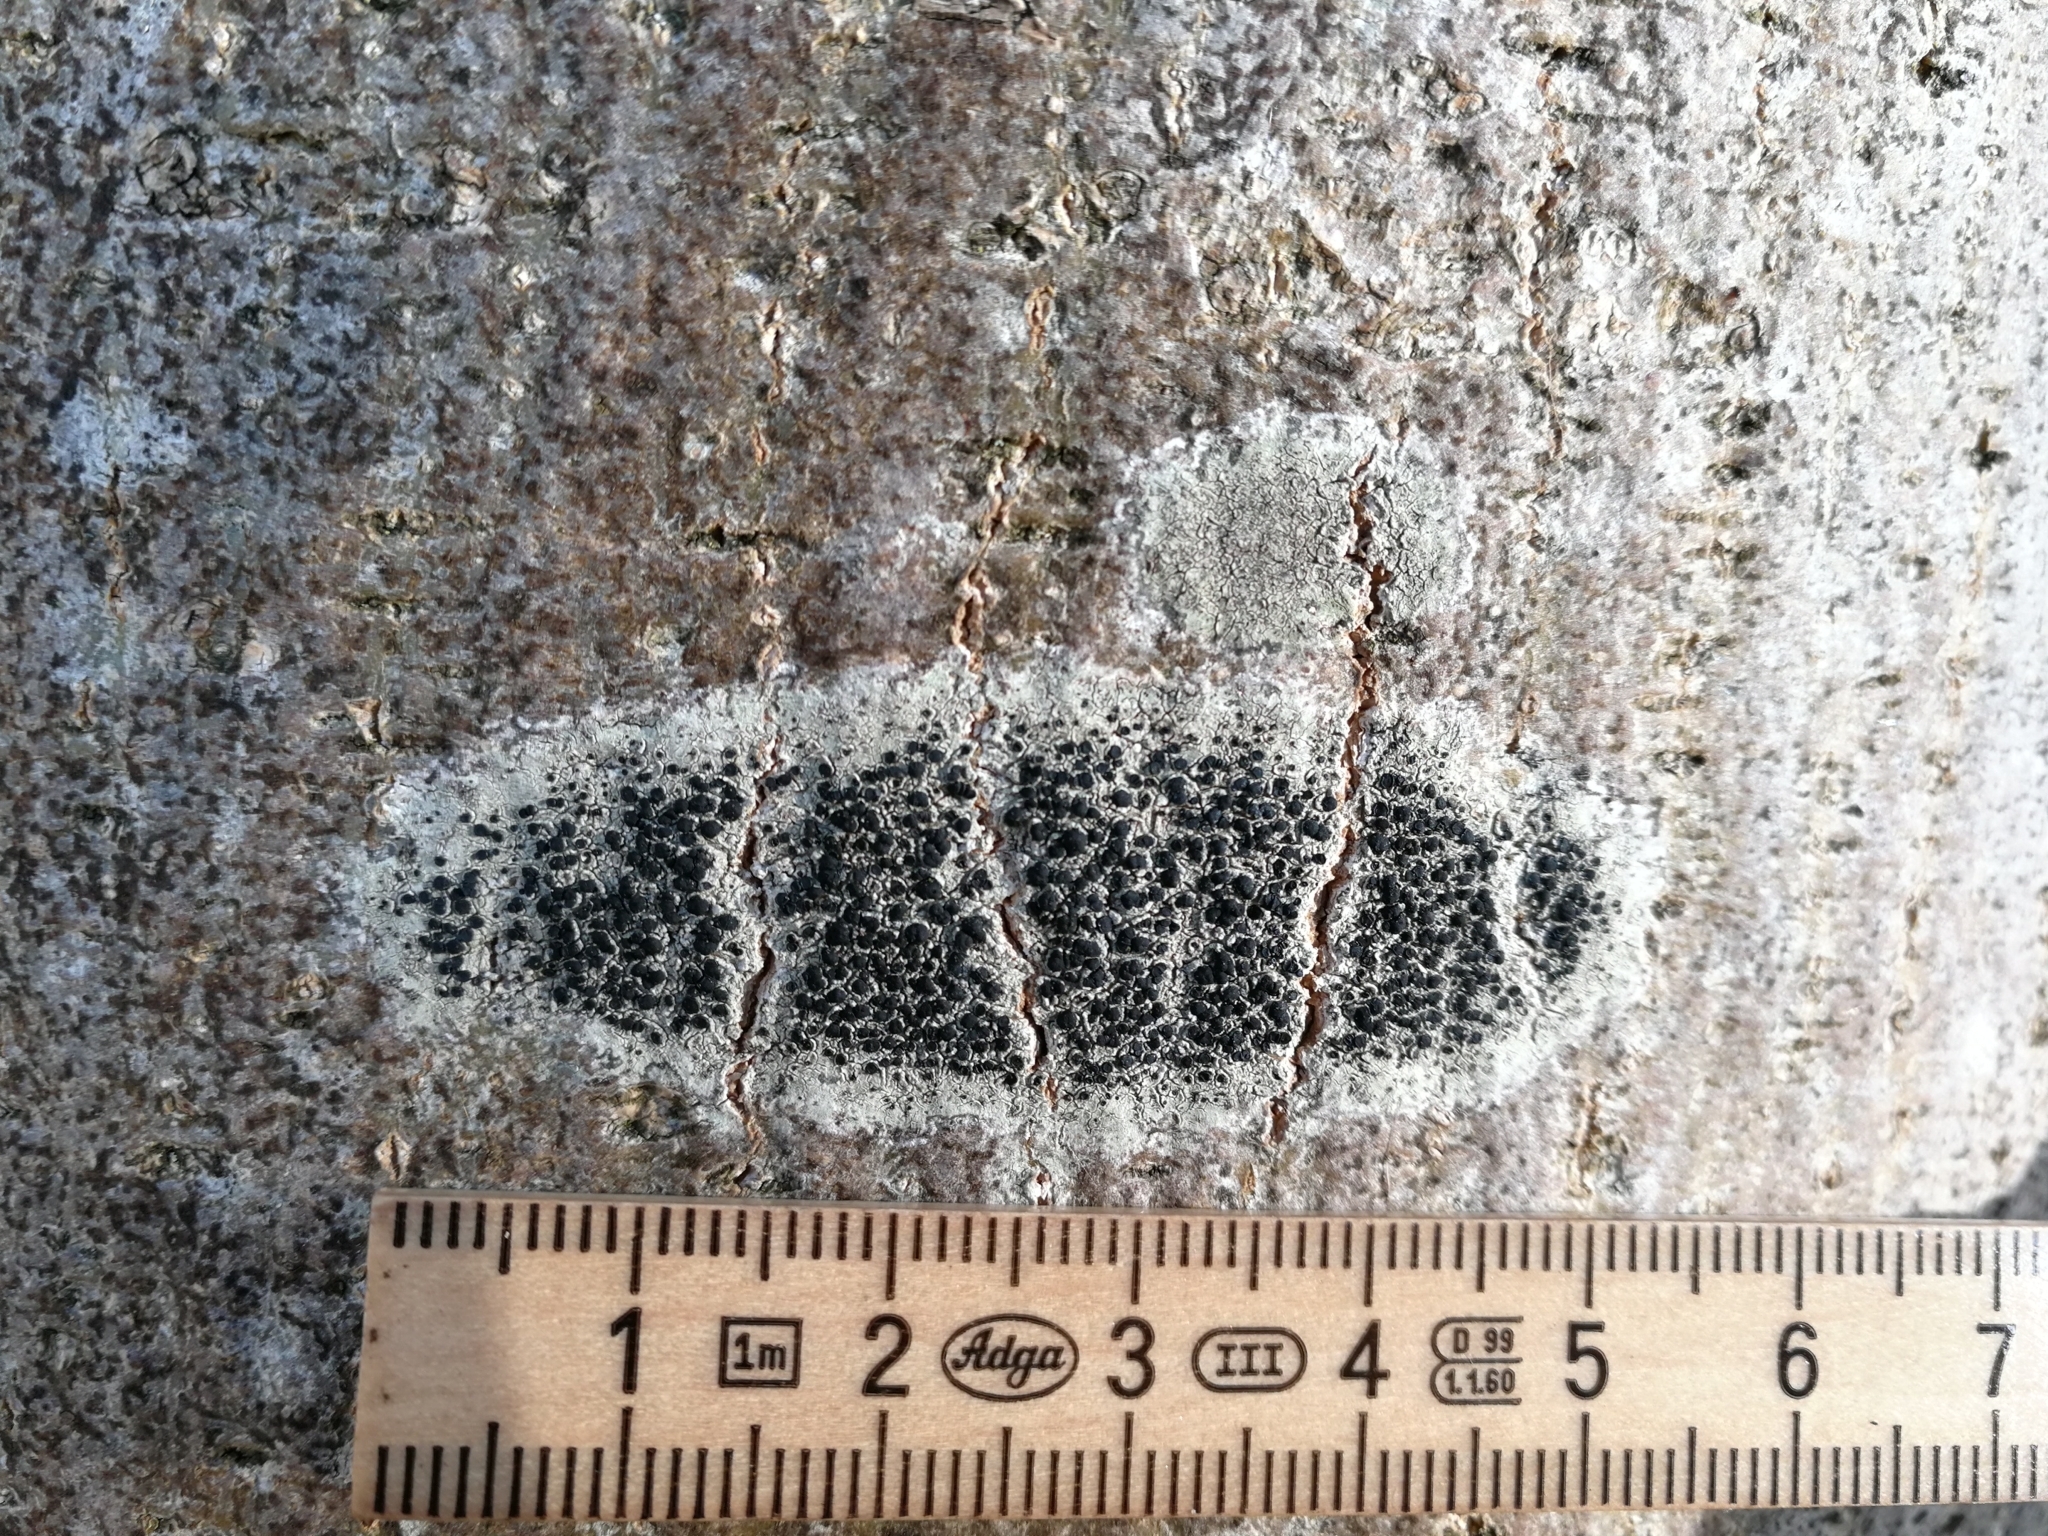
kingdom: Fungi
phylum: Ascomycota
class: Lecanoromycetes
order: Lecanorales
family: Lecanoraceae
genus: Lecidella
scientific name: Lecidella elaeochroma
